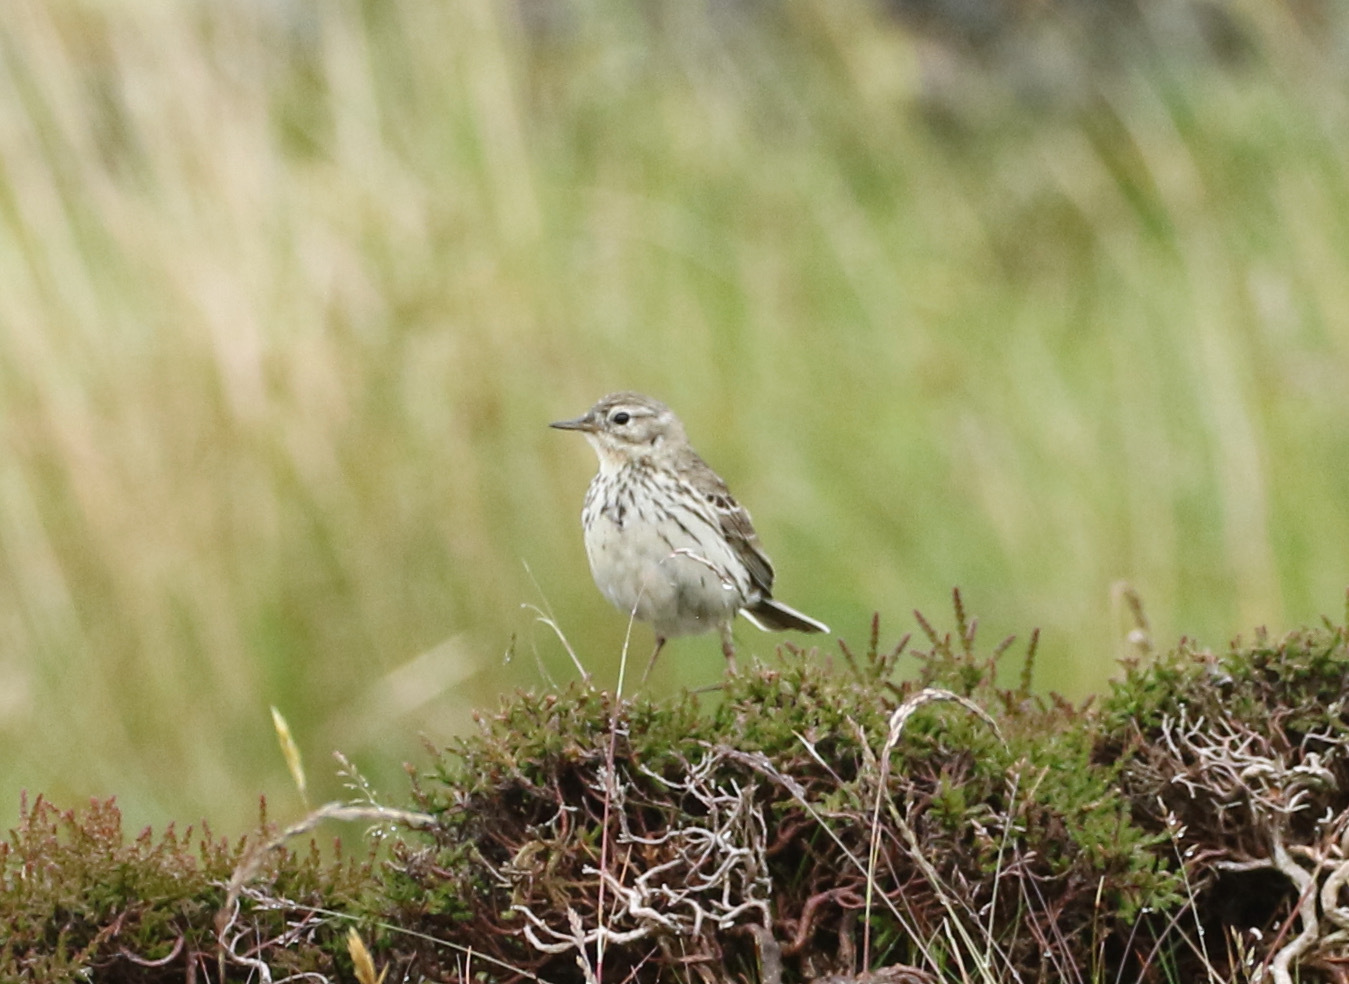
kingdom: Animalia
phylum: Chordata
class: Aves
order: Passeriformes
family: Motacillidae
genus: Anthus
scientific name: Anthus pratensis
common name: Meadow pipit
